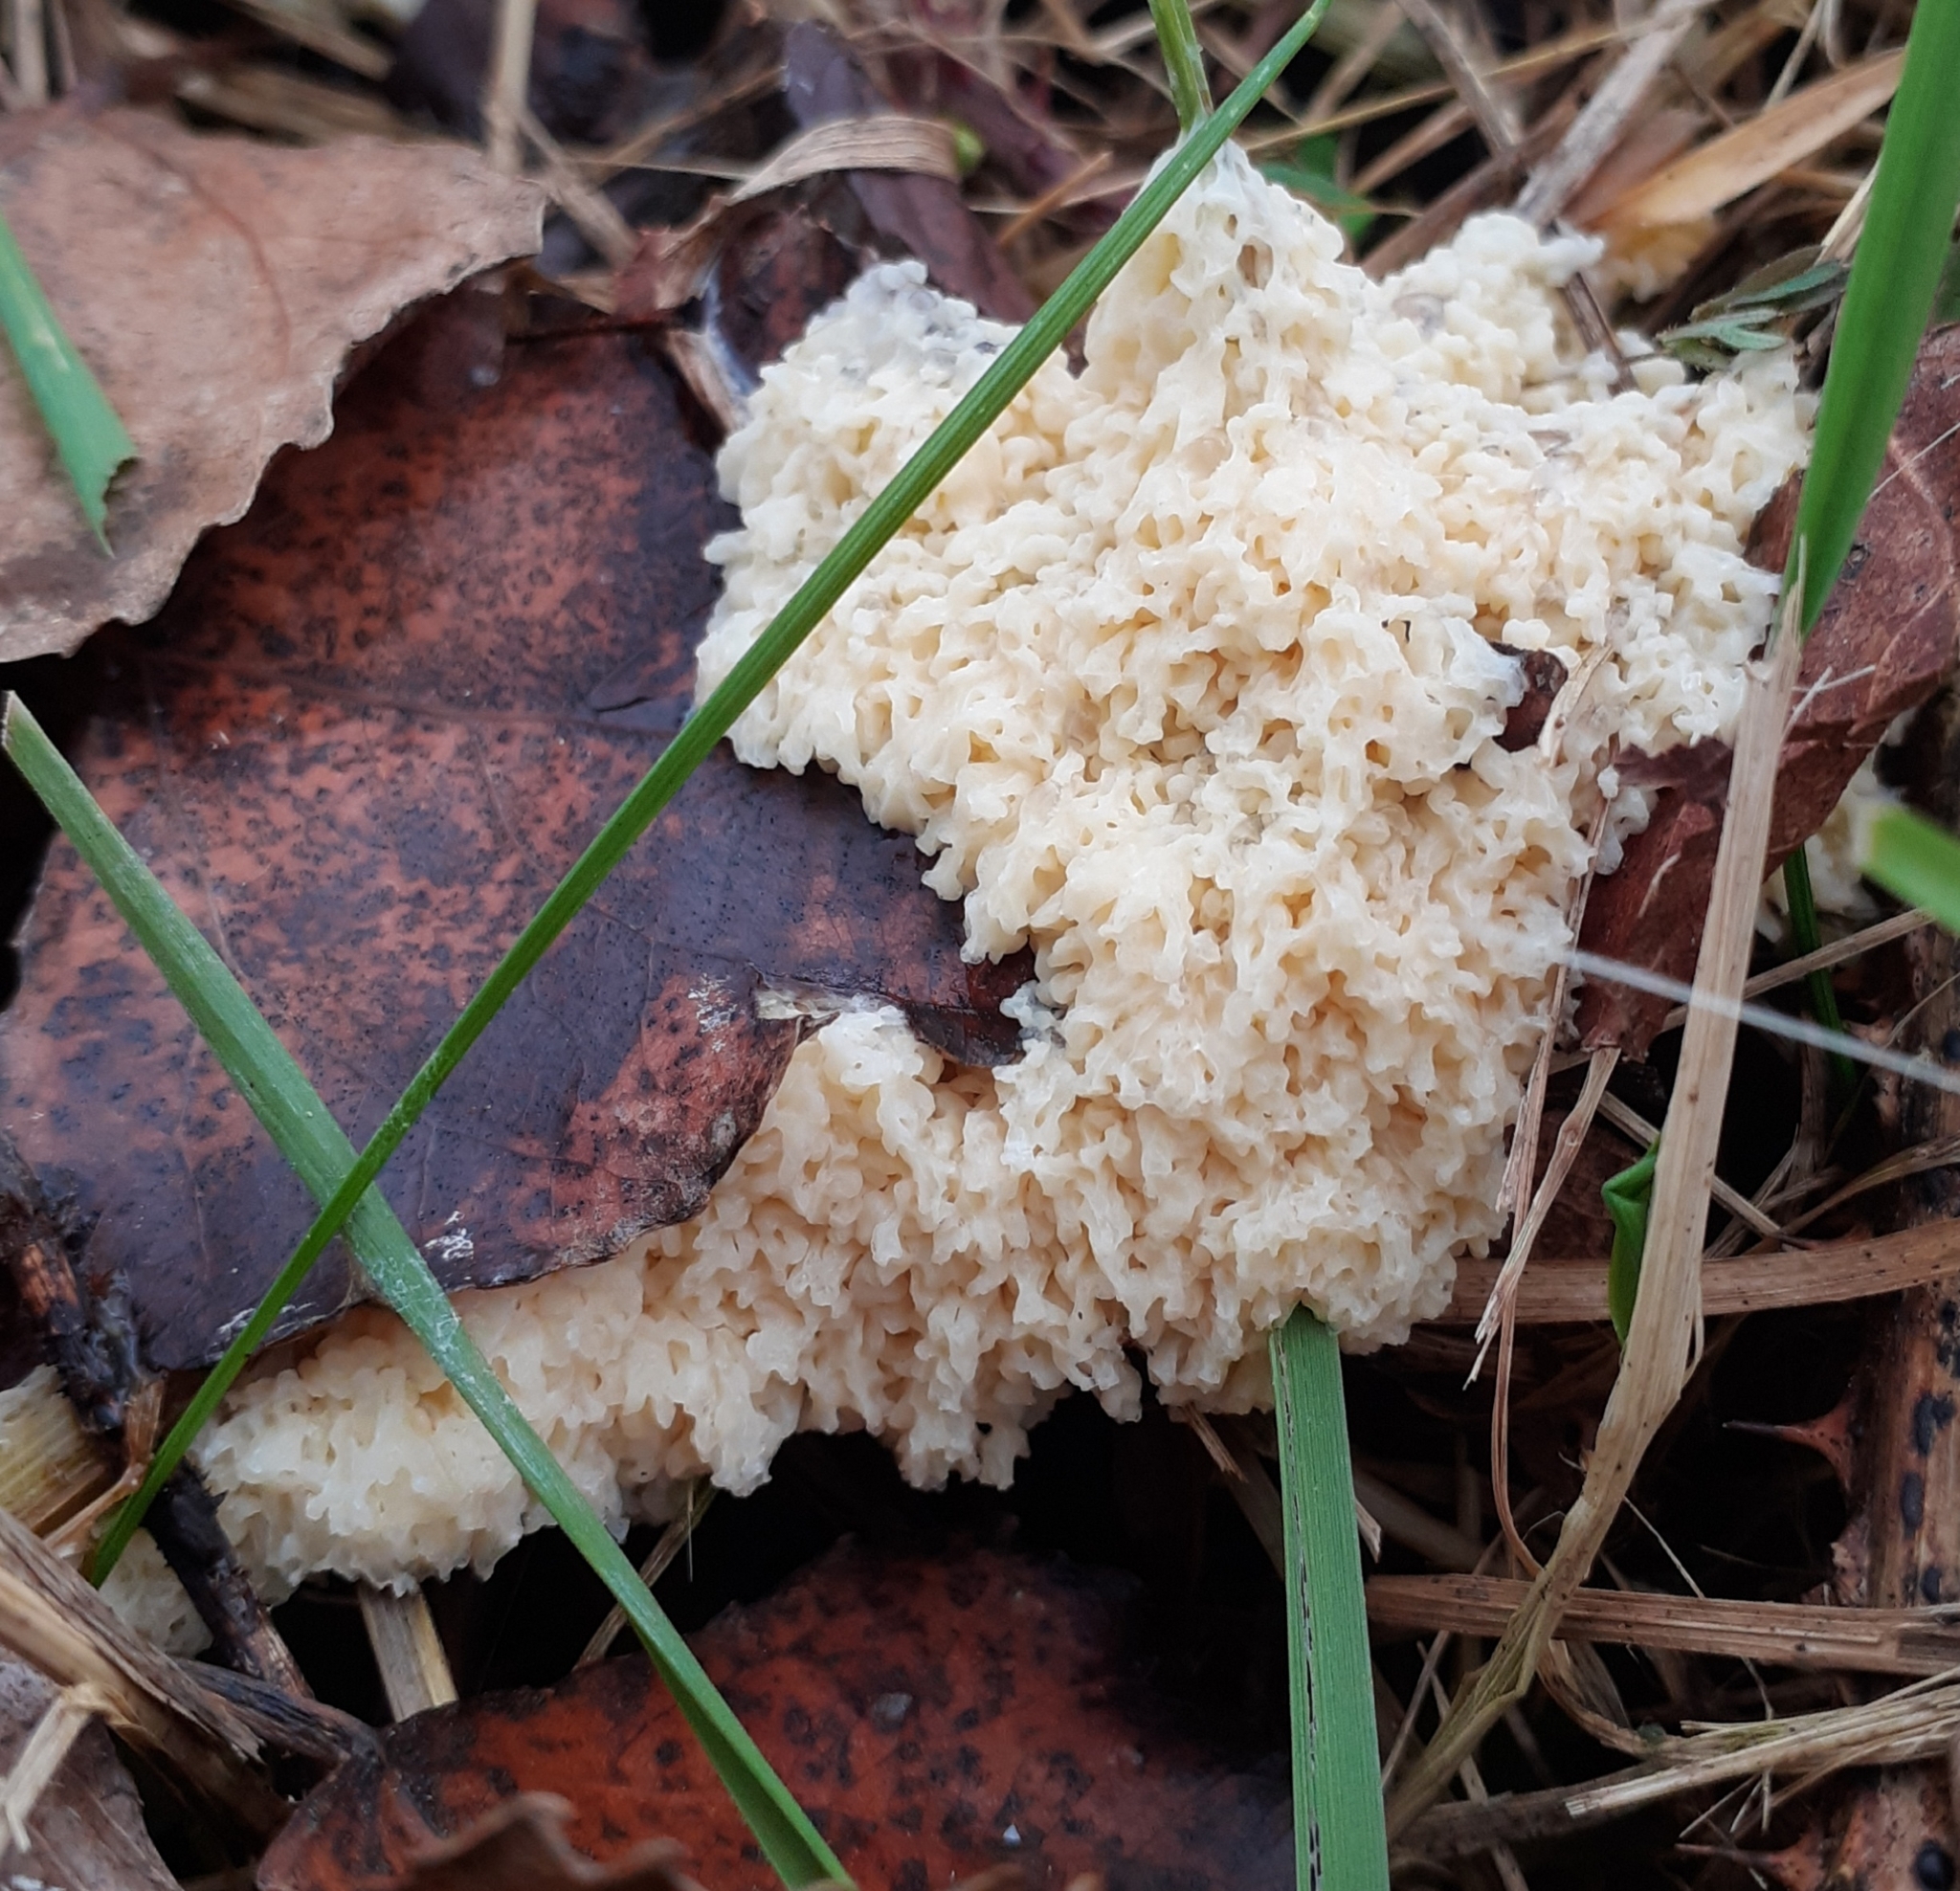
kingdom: Protozoa
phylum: Mycetozoa
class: Myxomycetes
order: Physarales
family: Physaraceae
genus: Didymium
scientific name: Didymium
